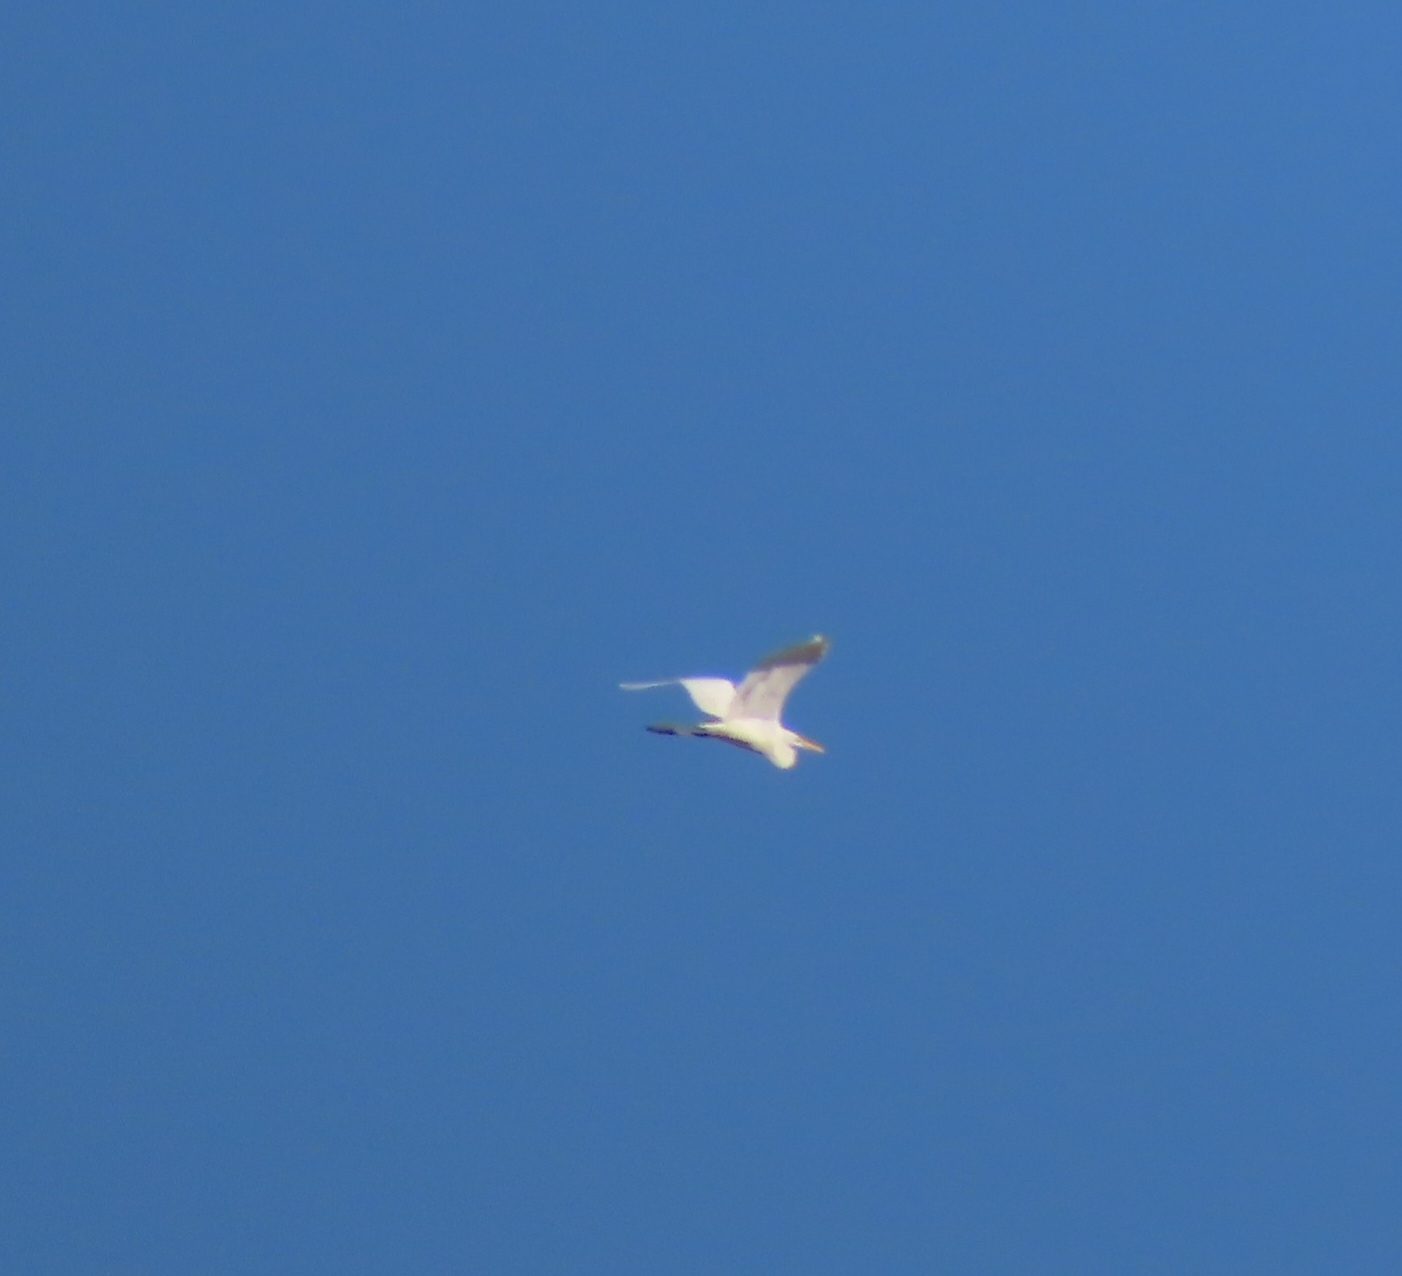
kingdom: Animalia
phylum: Chordata
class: Aves
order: Pelecaniformes
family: Ardeidae
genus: Ardea
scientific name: Ardea alba
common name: Great egret
